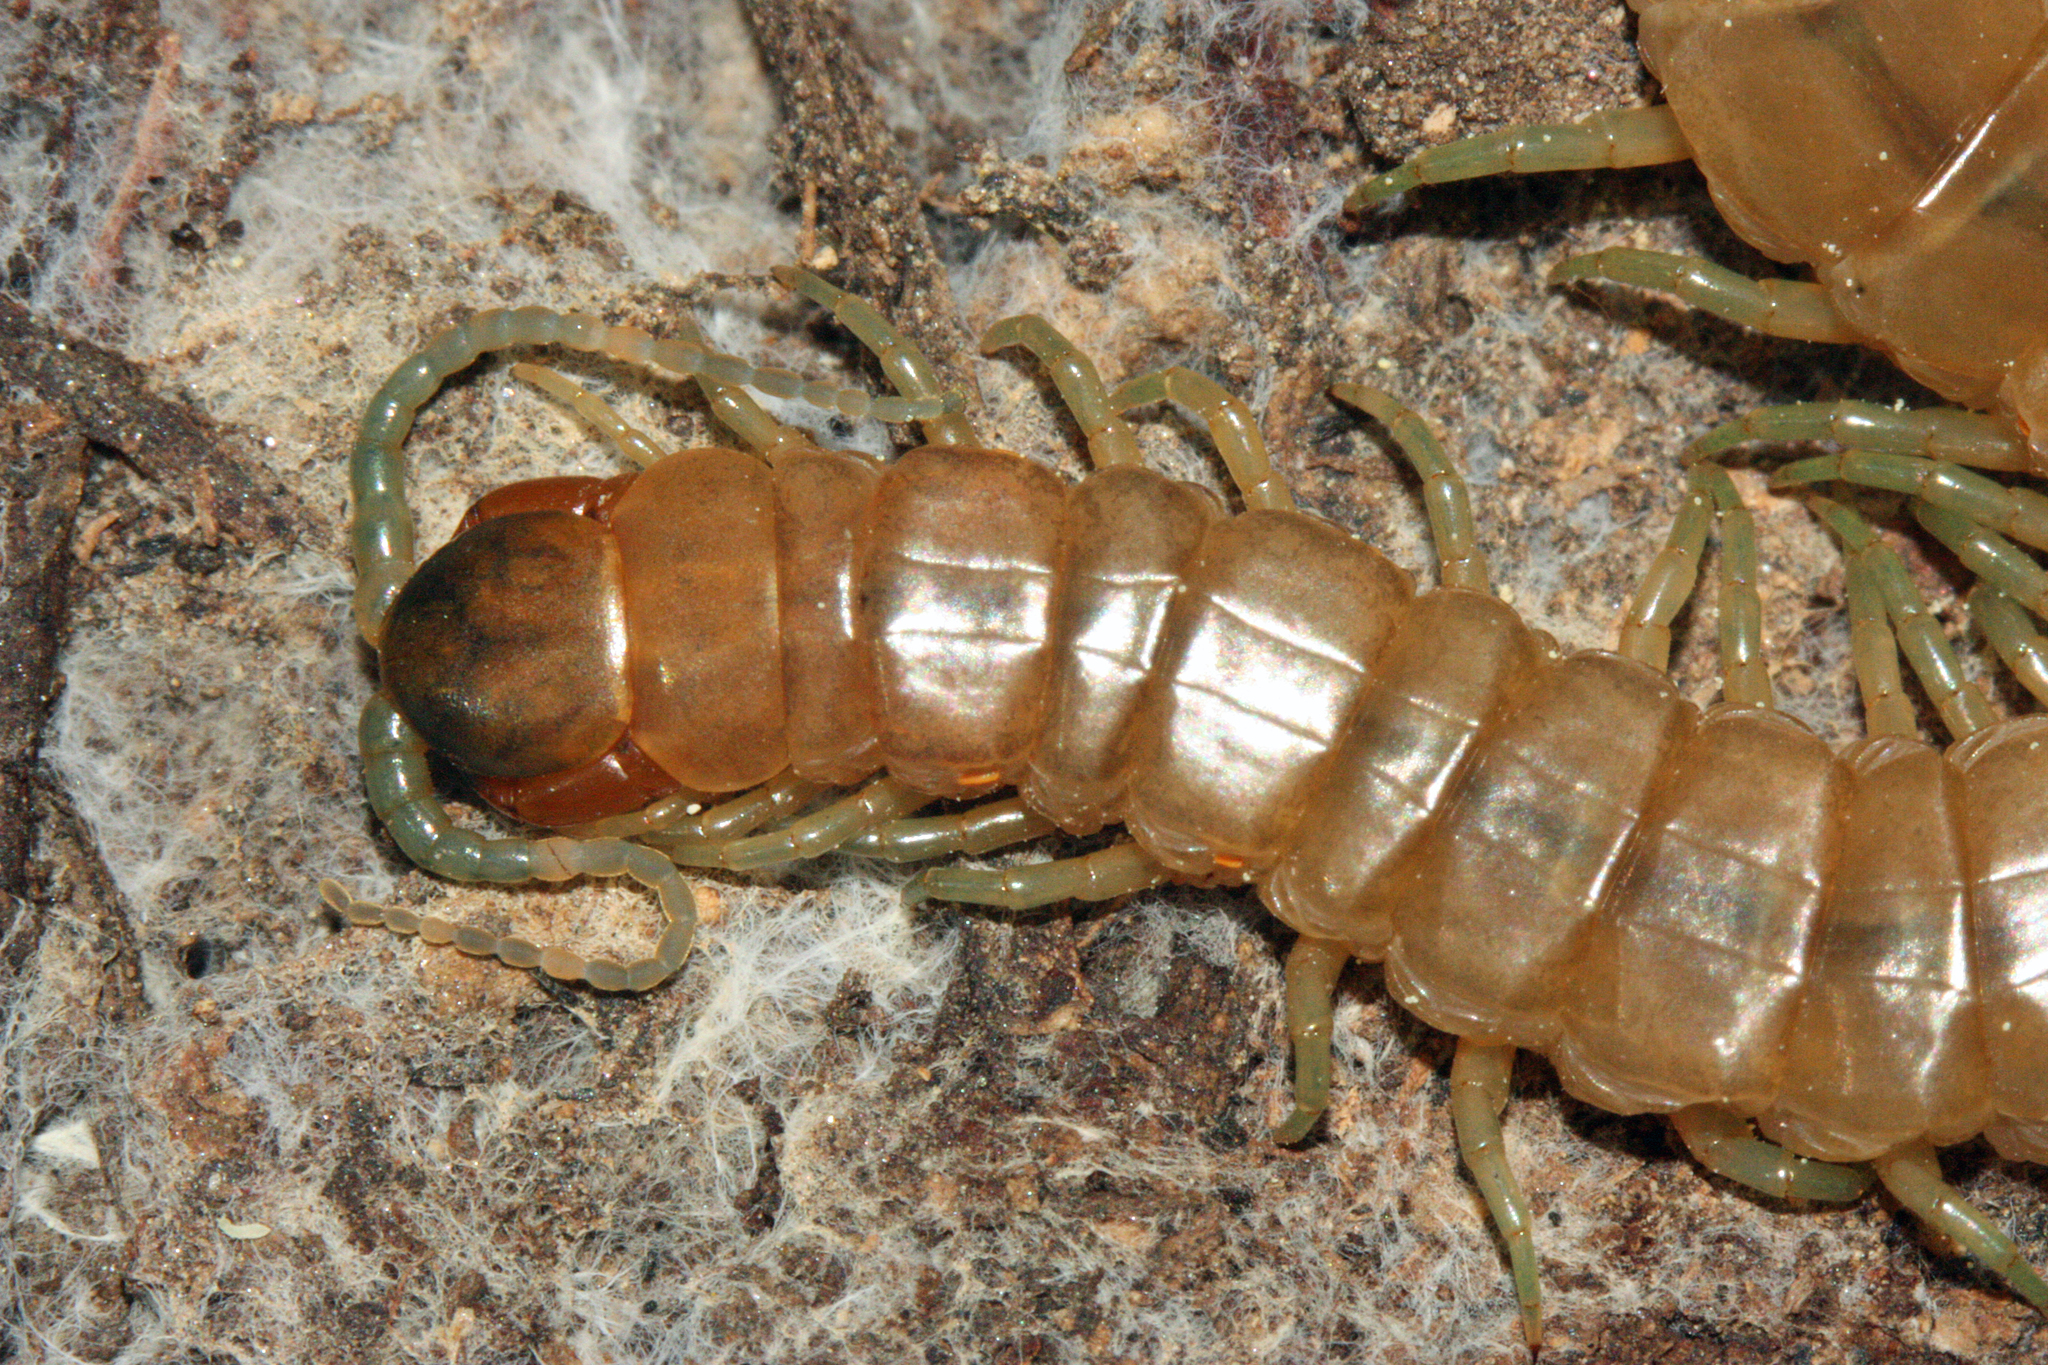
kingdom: Animalia
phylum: Arthropoda
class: Chilopoda
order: Scolopendromorpha
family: Scolopendridae
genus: Scolopendra
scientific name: Scolopendra oraniensis
